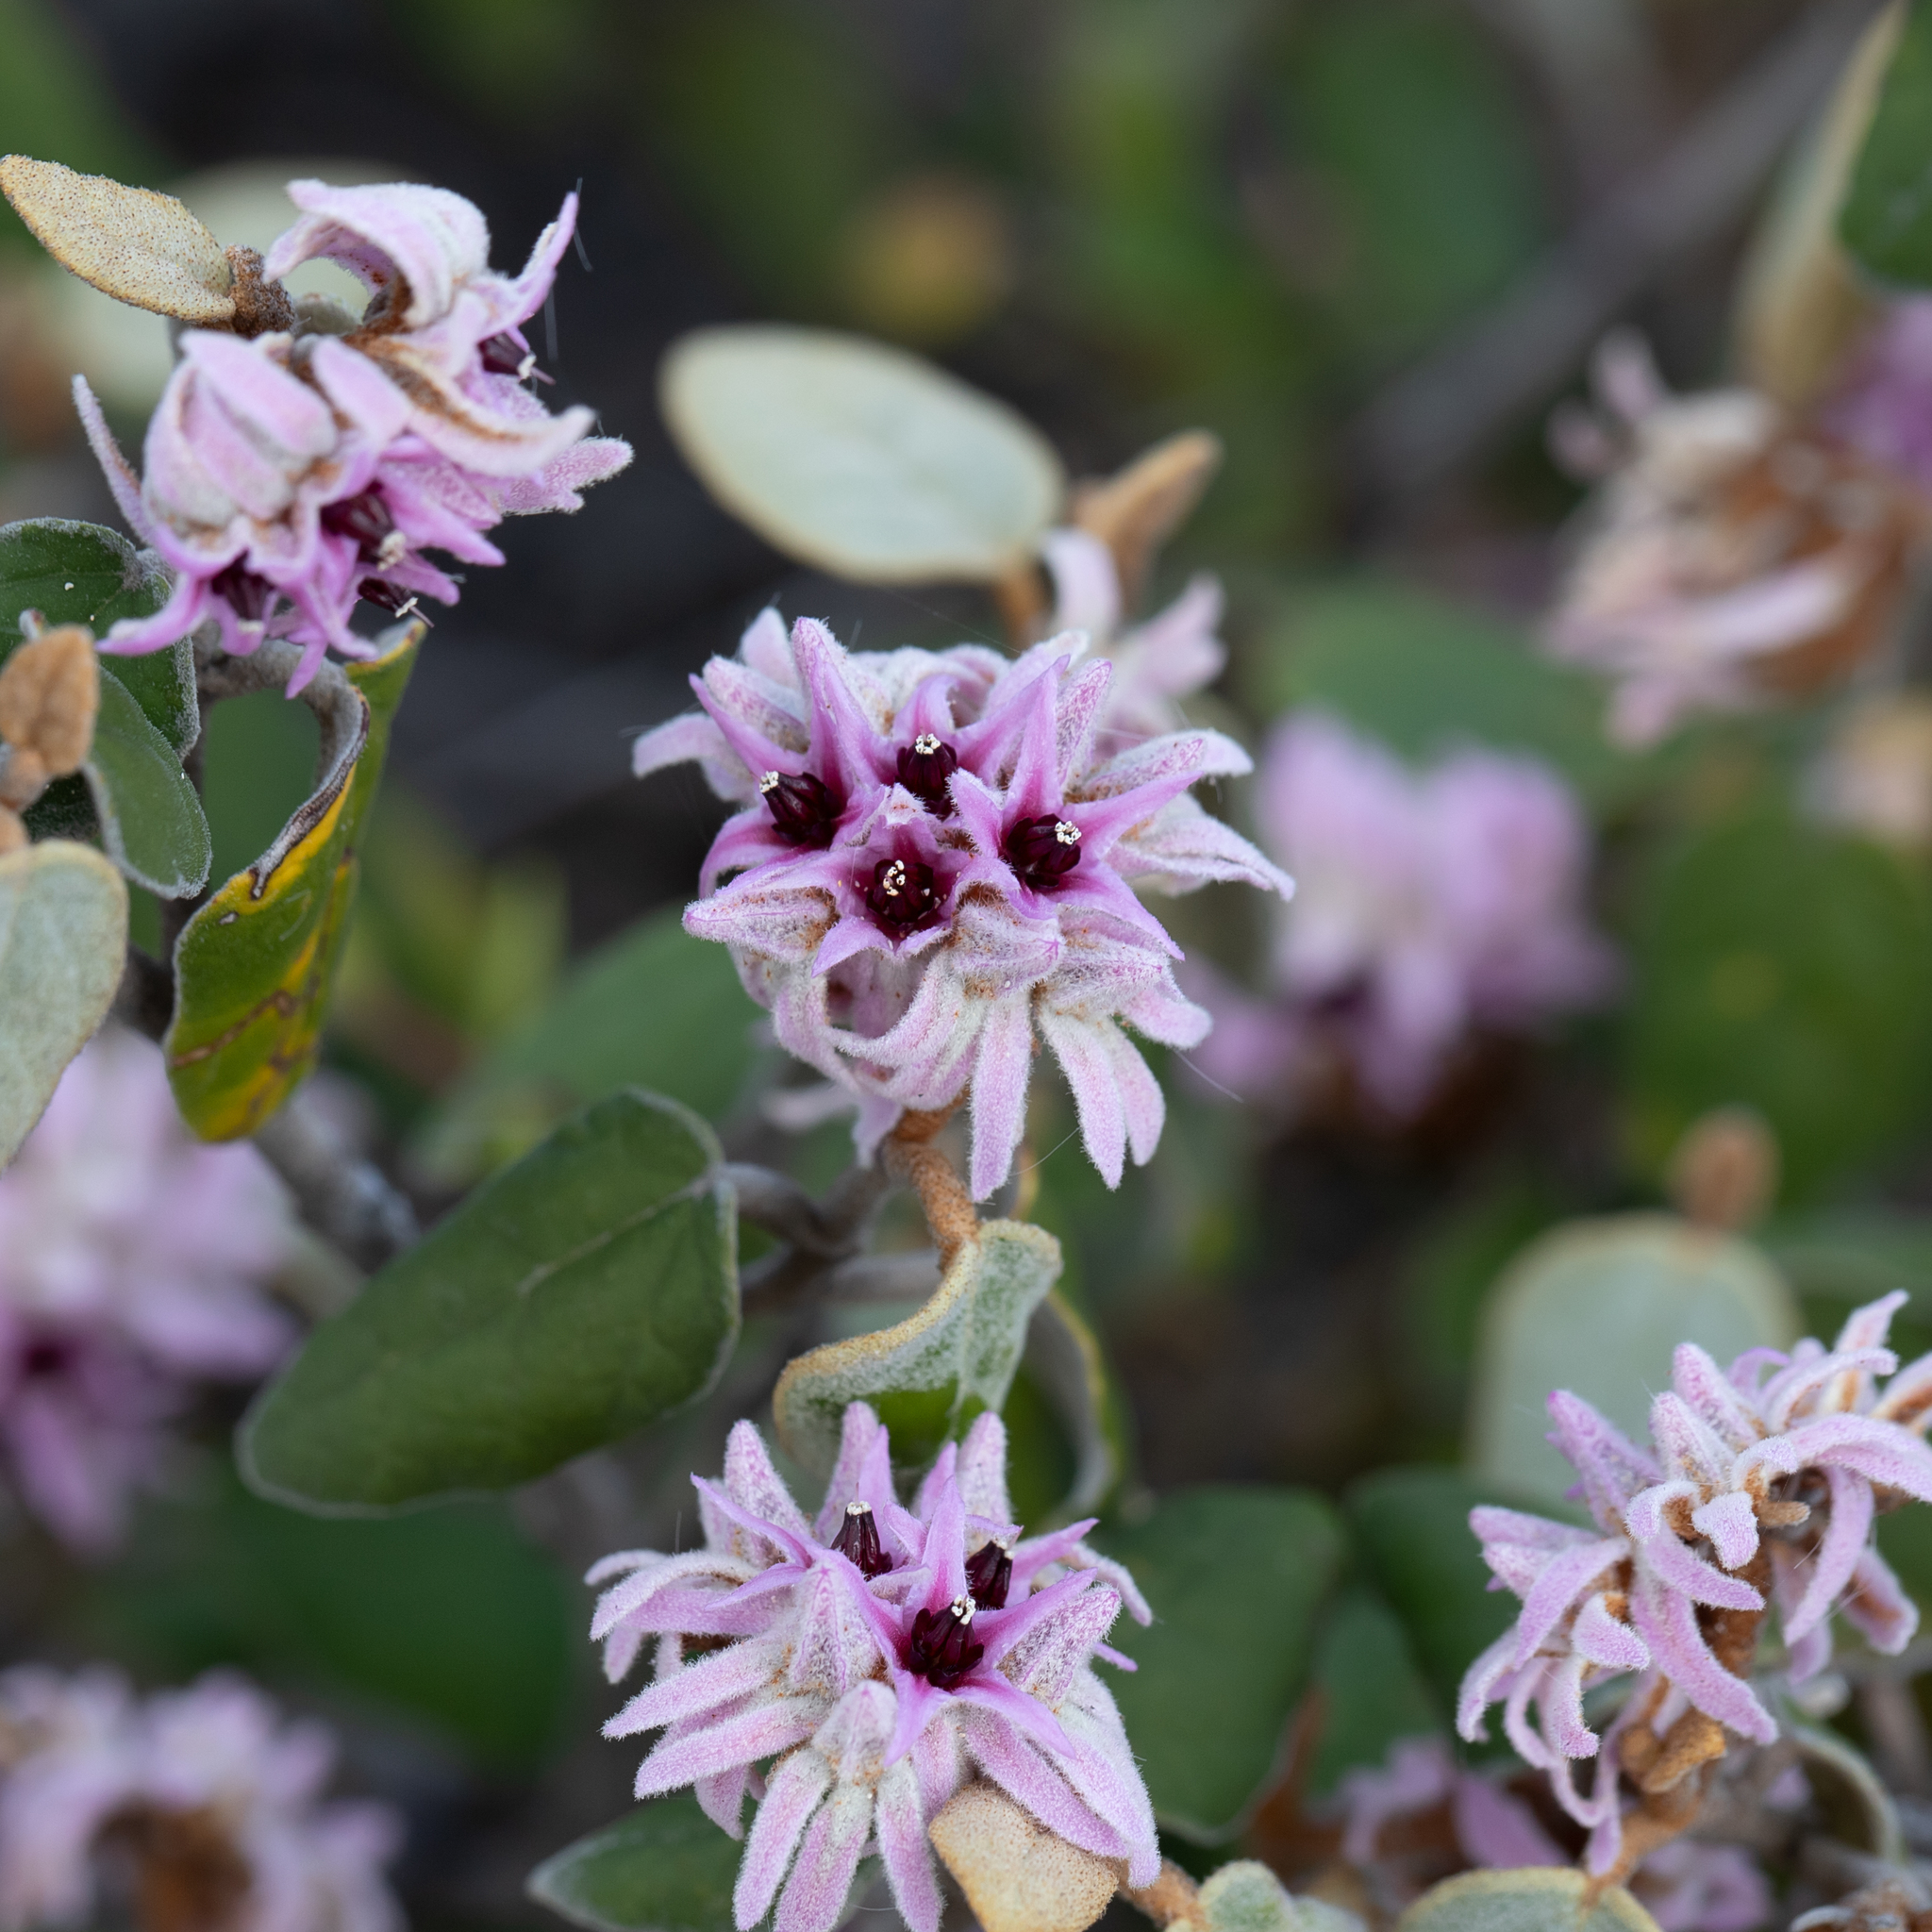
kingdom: Plantae
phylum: Tracheophyta
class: Magnoliopsida
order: Malvales
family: Malvaceae
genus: Lasiopetalum
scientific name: Lasiopetalum discolor
